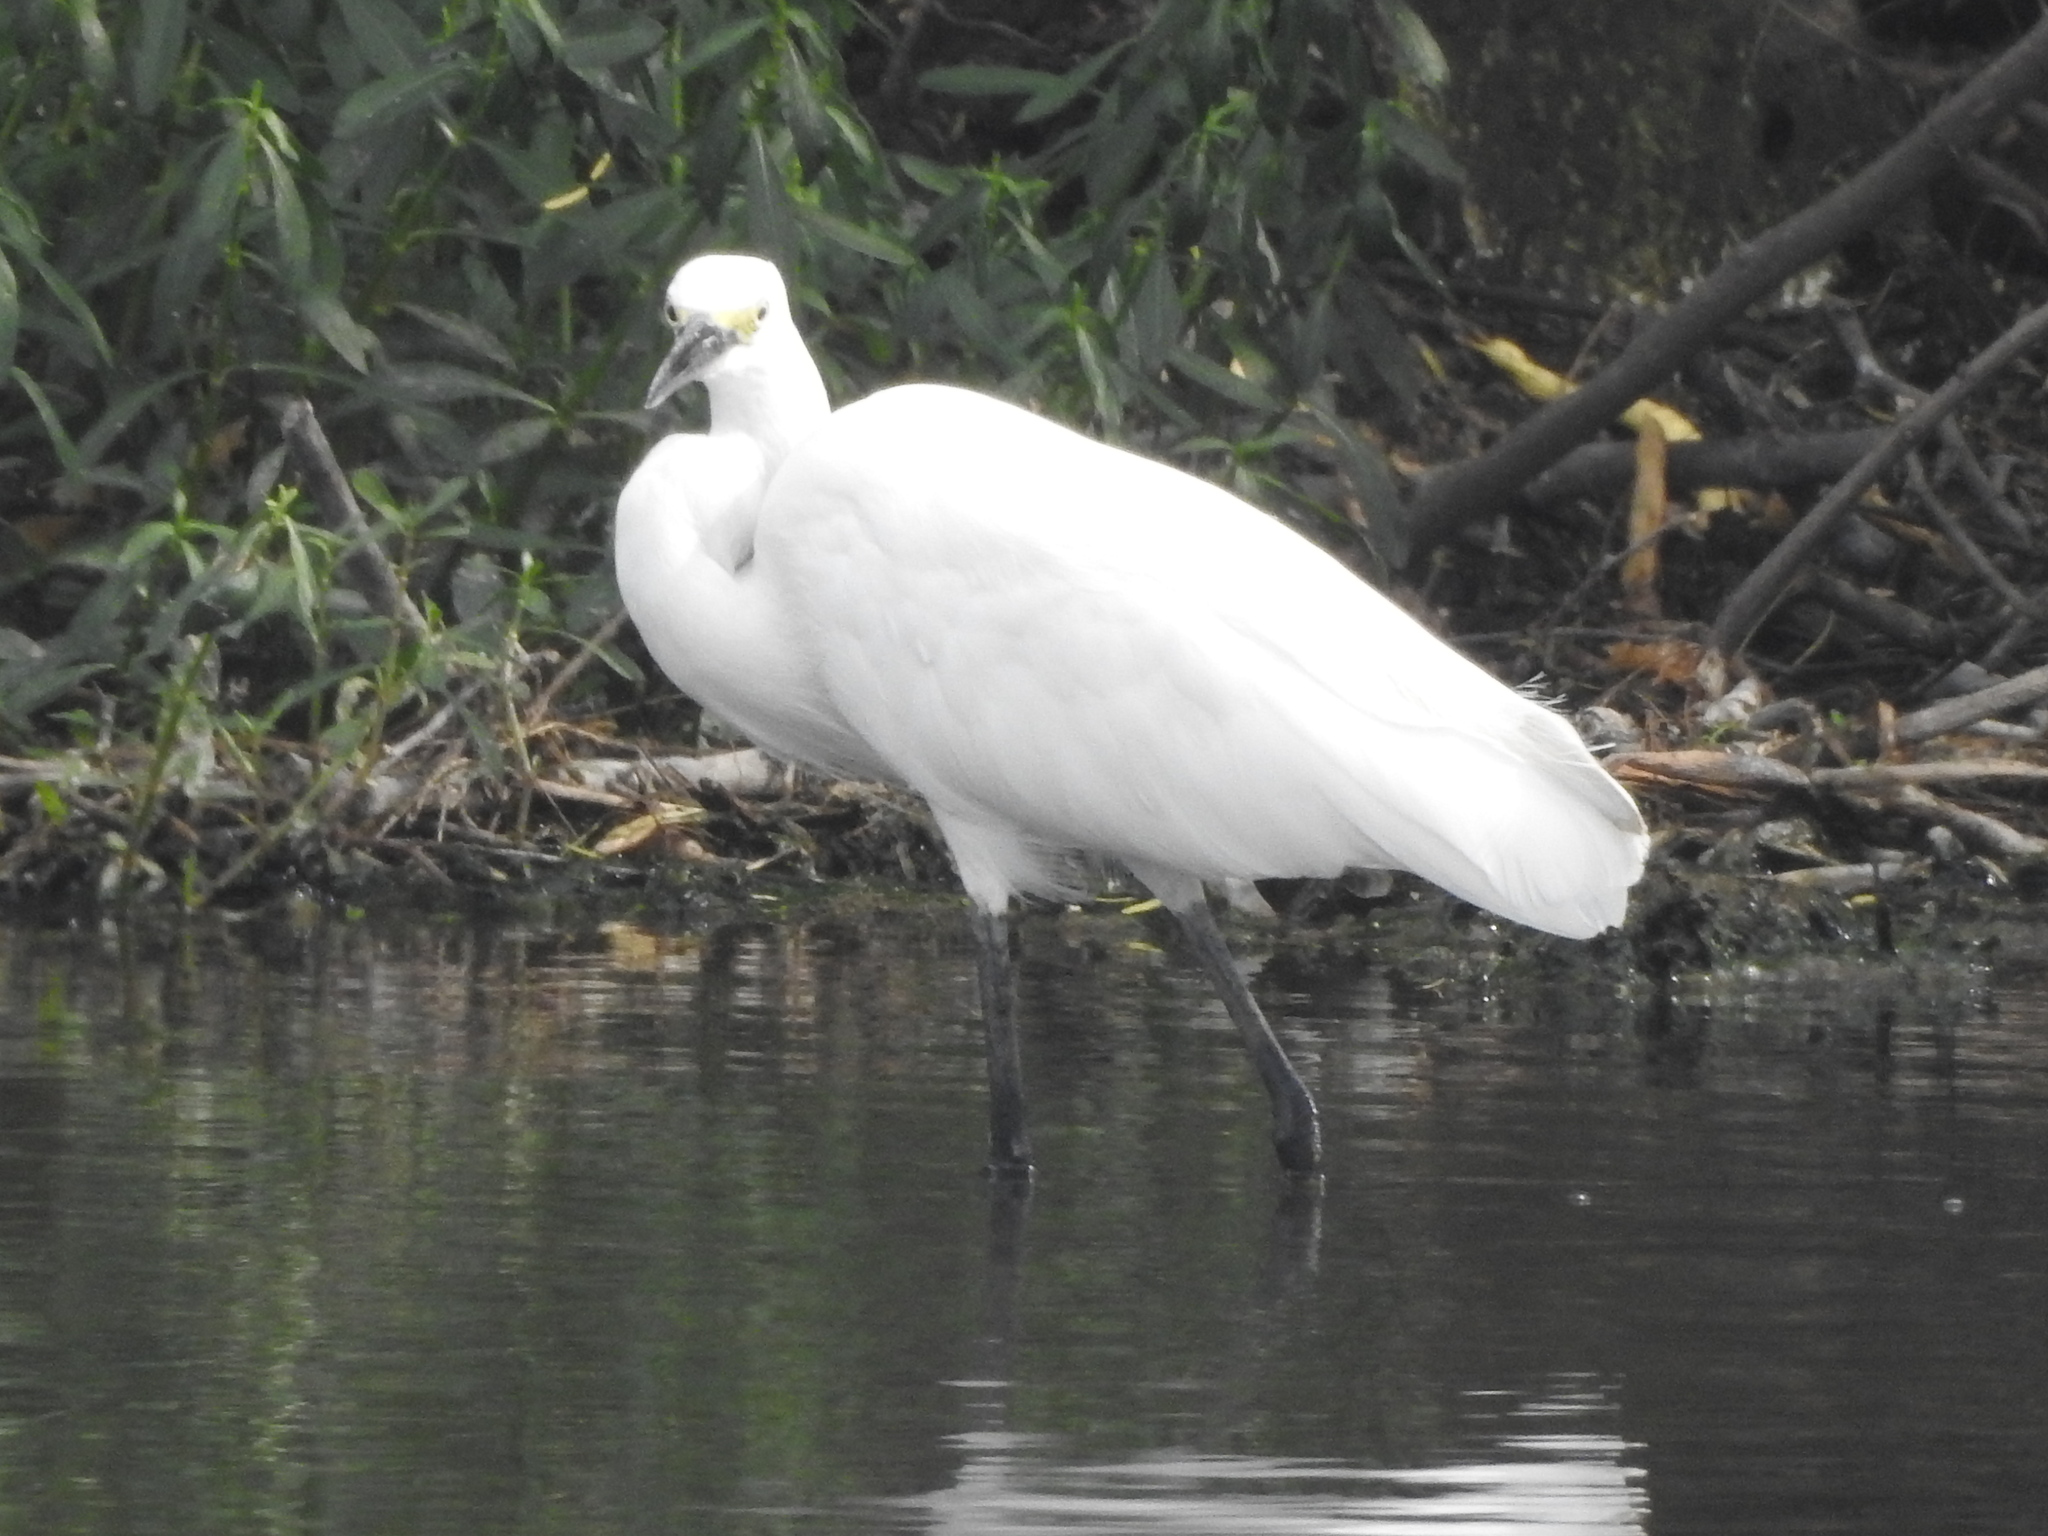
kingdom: Animalia
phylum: Chordata
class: Aves
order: Pelecaniformes
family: Ardeidae
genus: Egretta
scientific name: Egretta garzetta
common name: Little egret
